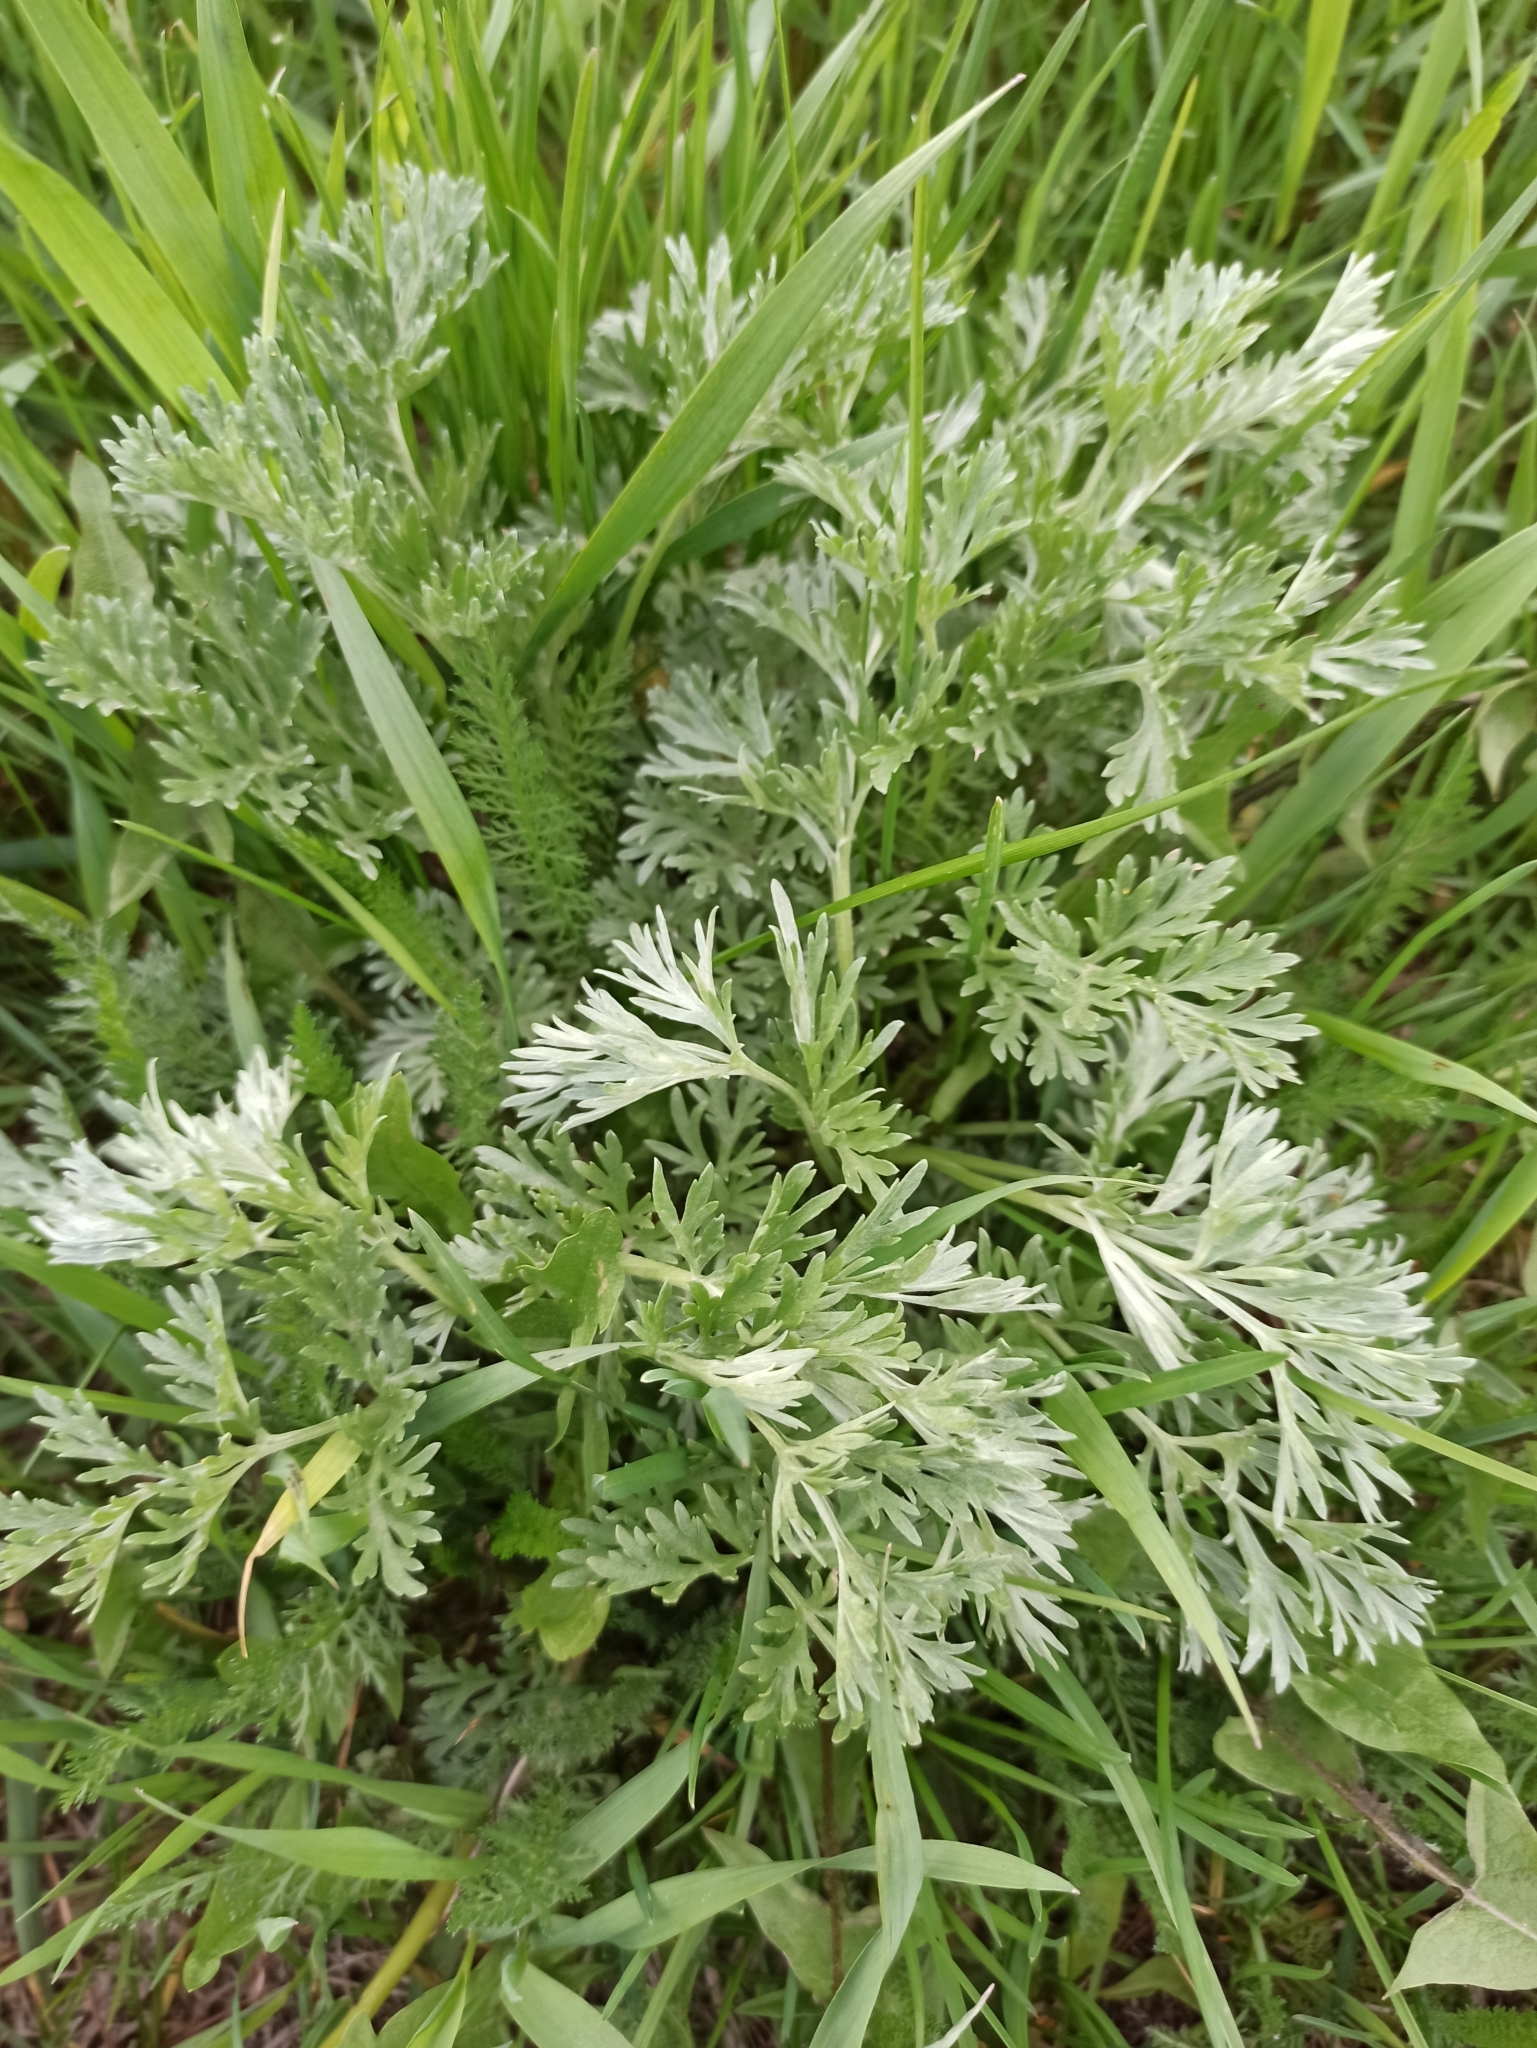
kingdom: Plantae
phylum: Tracheophyta
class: Magnoliopsida
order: Asterales
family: Asteraceae
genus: Artemisia
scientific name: Artemisia absinthium
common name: Wormwood
